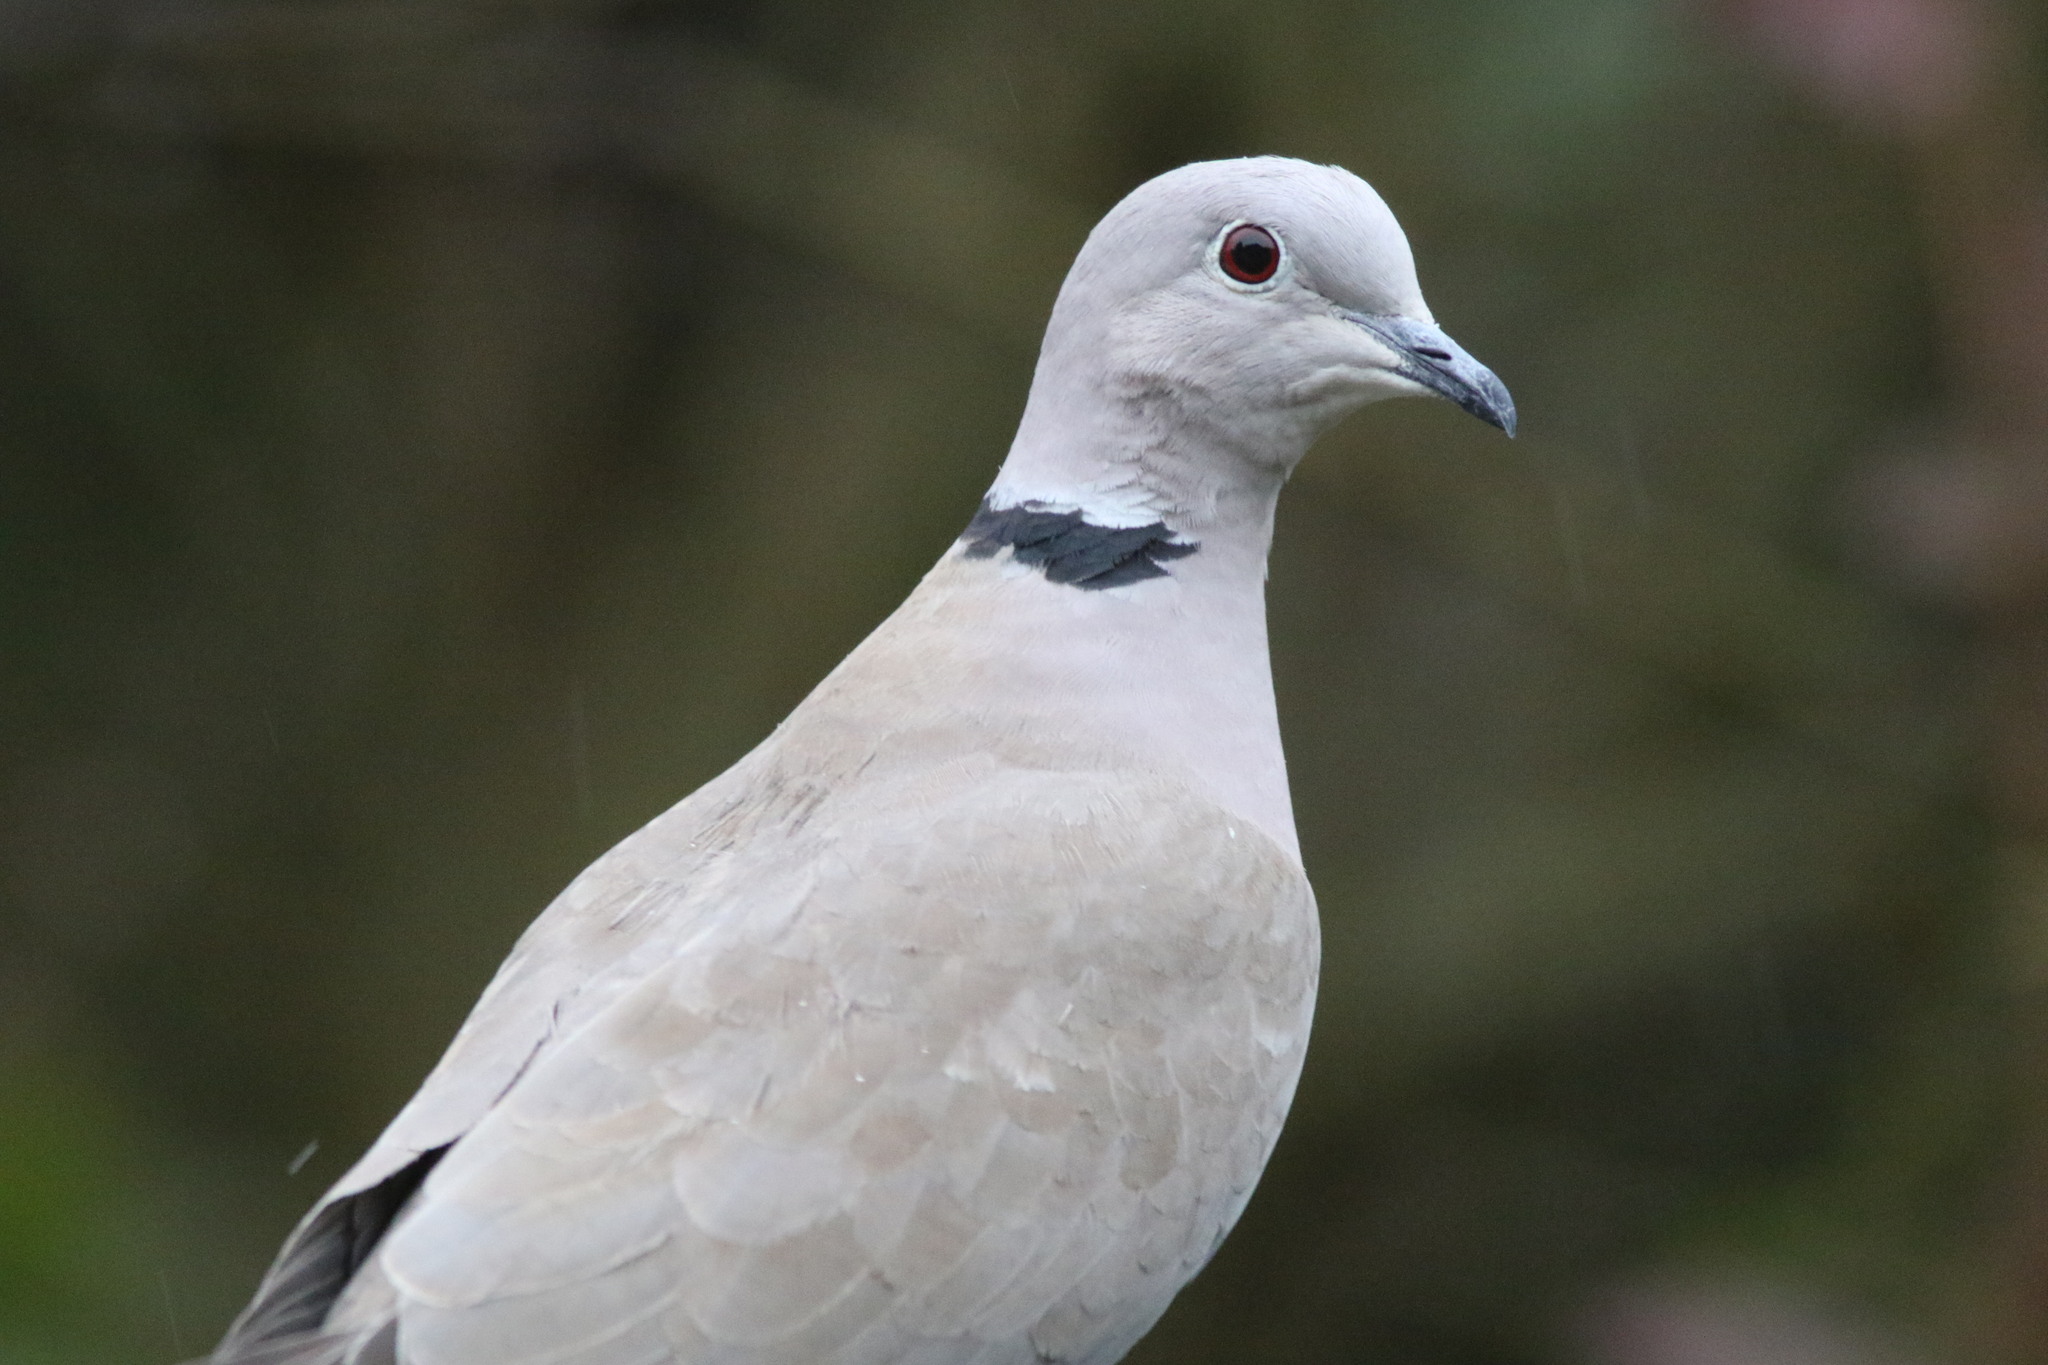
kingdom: Animalia
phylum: Chordata
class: Aves
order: Columbiformes
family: Columbidae
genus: Streptopelia
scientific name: Streptopelia decaocto
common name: Eurasian collared dove
